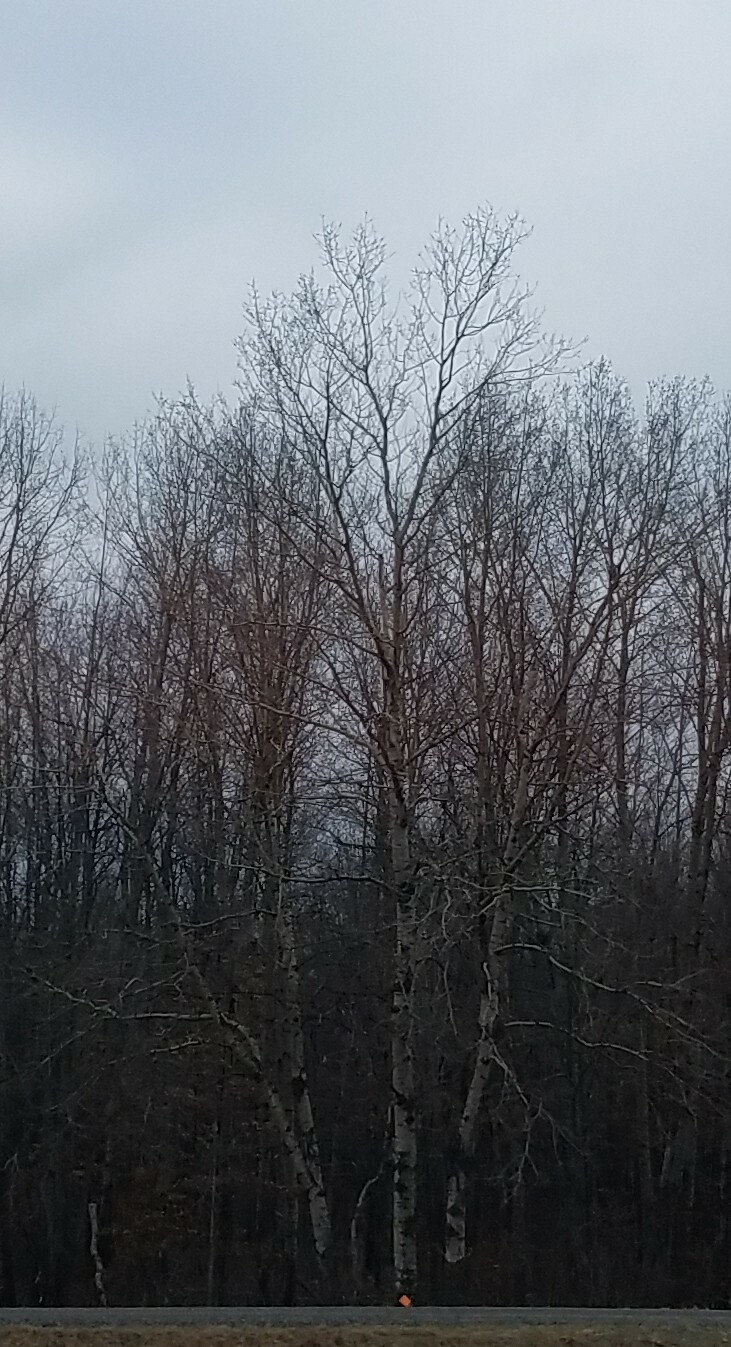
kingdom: Plantae
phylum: Tracheophyta
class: Magnoliopsida
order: Malpighiales
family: Salicaceae
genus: Populus
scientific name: Populus tremuloides
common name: Quaking aspen
